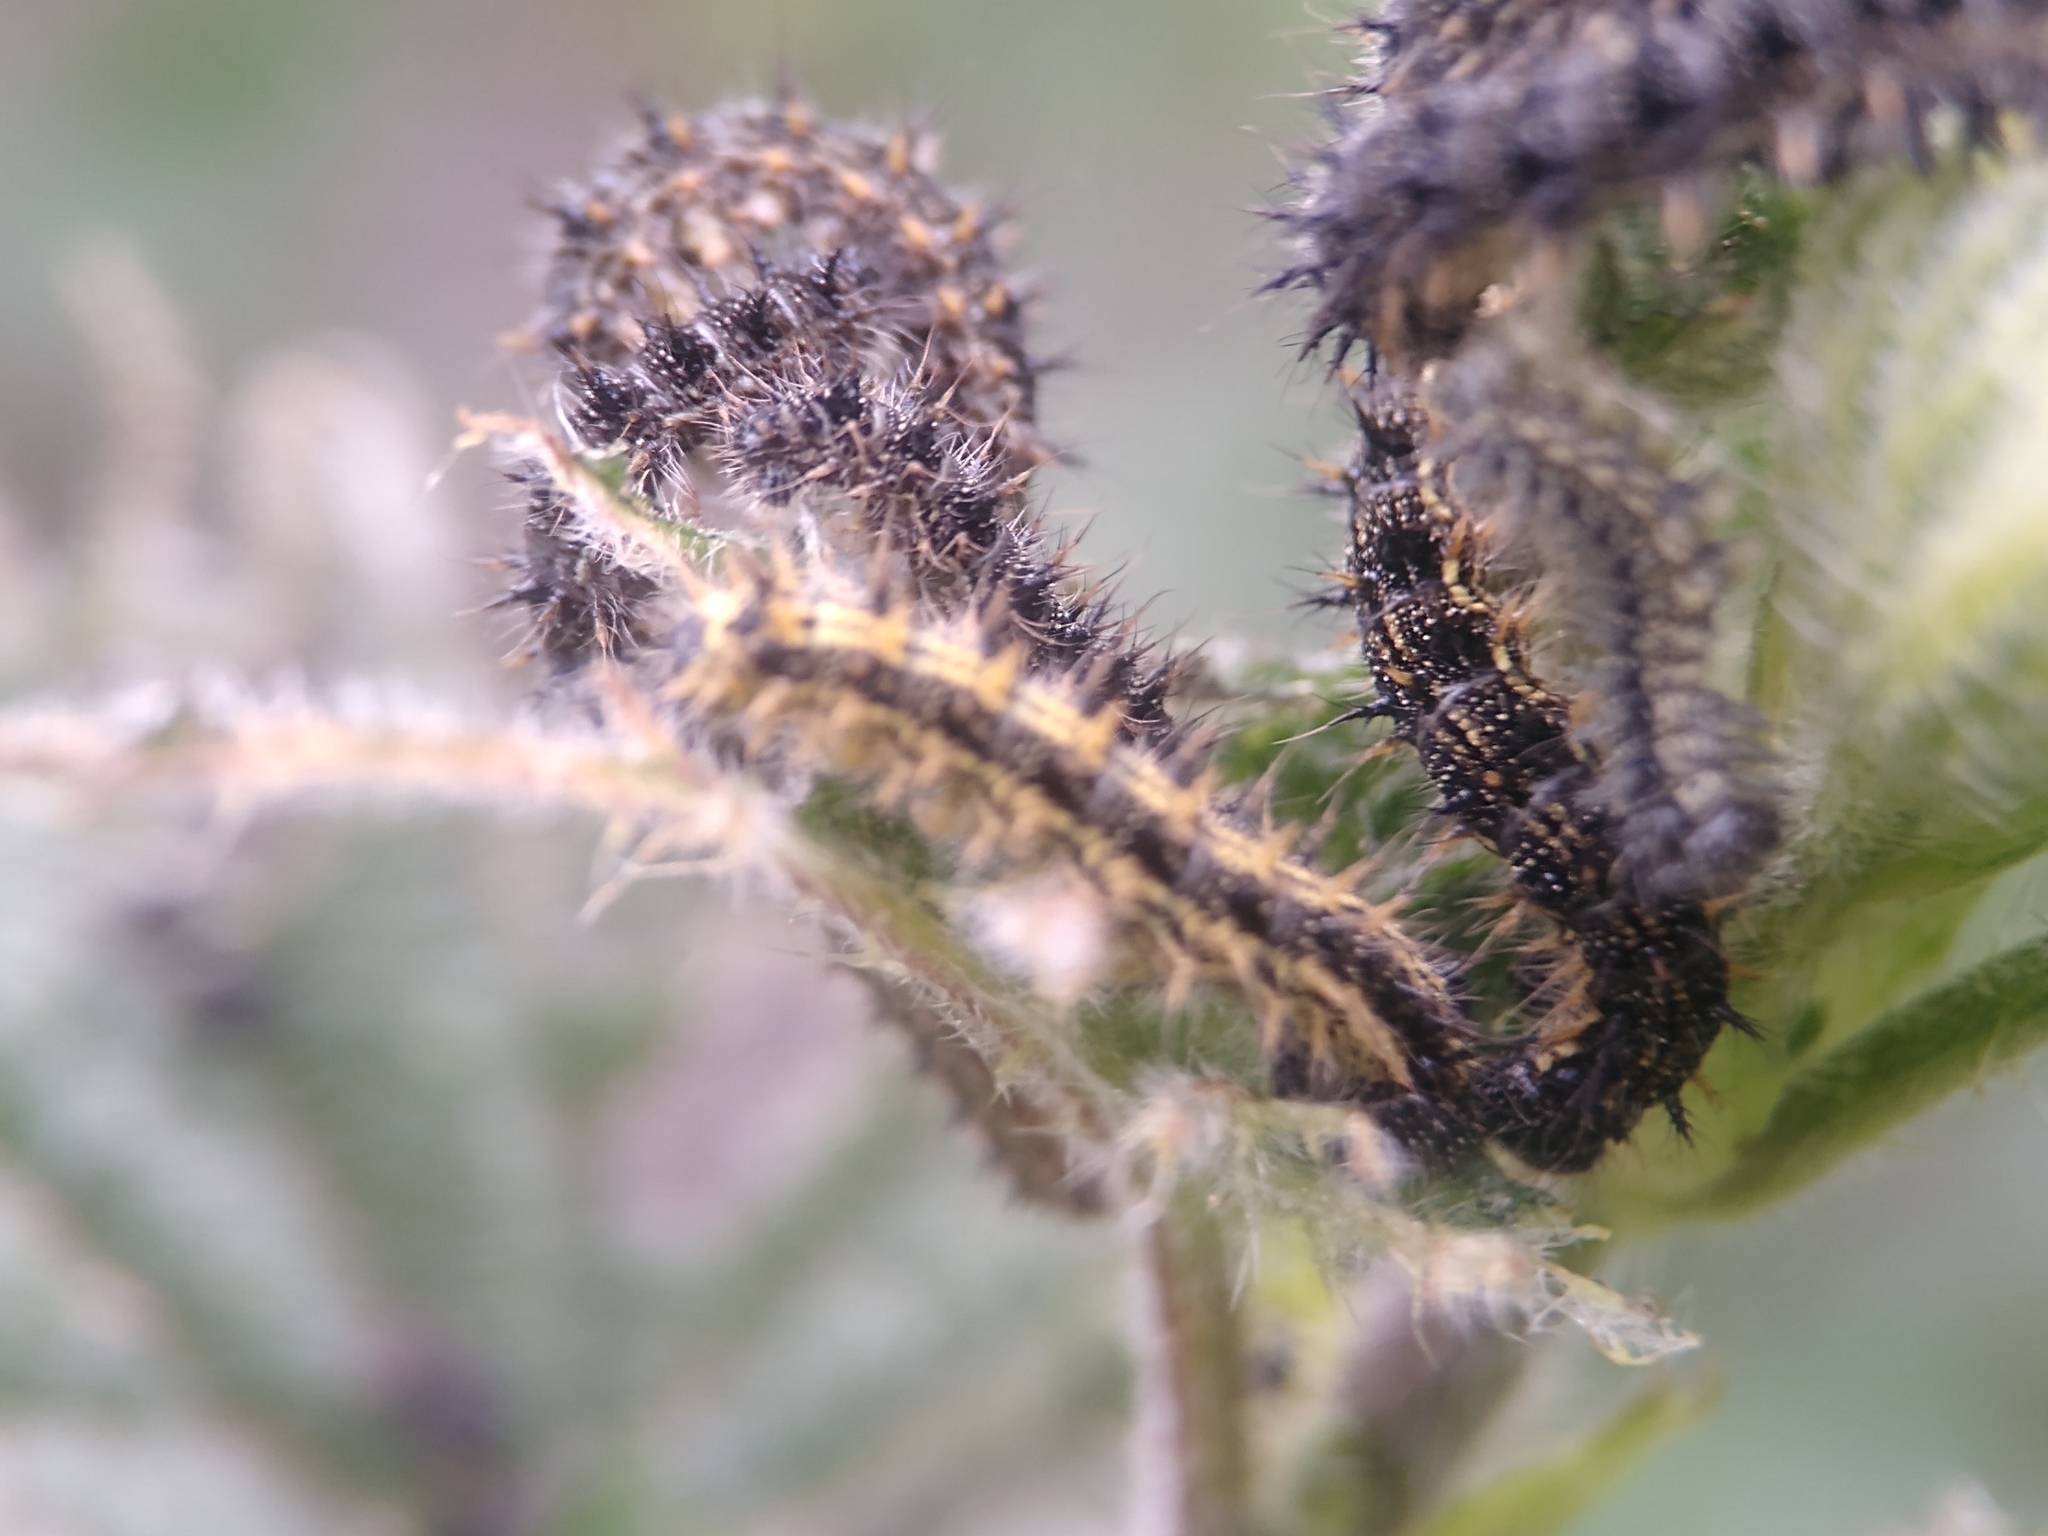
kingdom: Animalia
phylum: Arthropoda
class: Insecta
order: Lepidoptera
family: Nymphalidae
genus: Aglais
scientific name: Aglais urticae
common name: Small tortoiseshell
